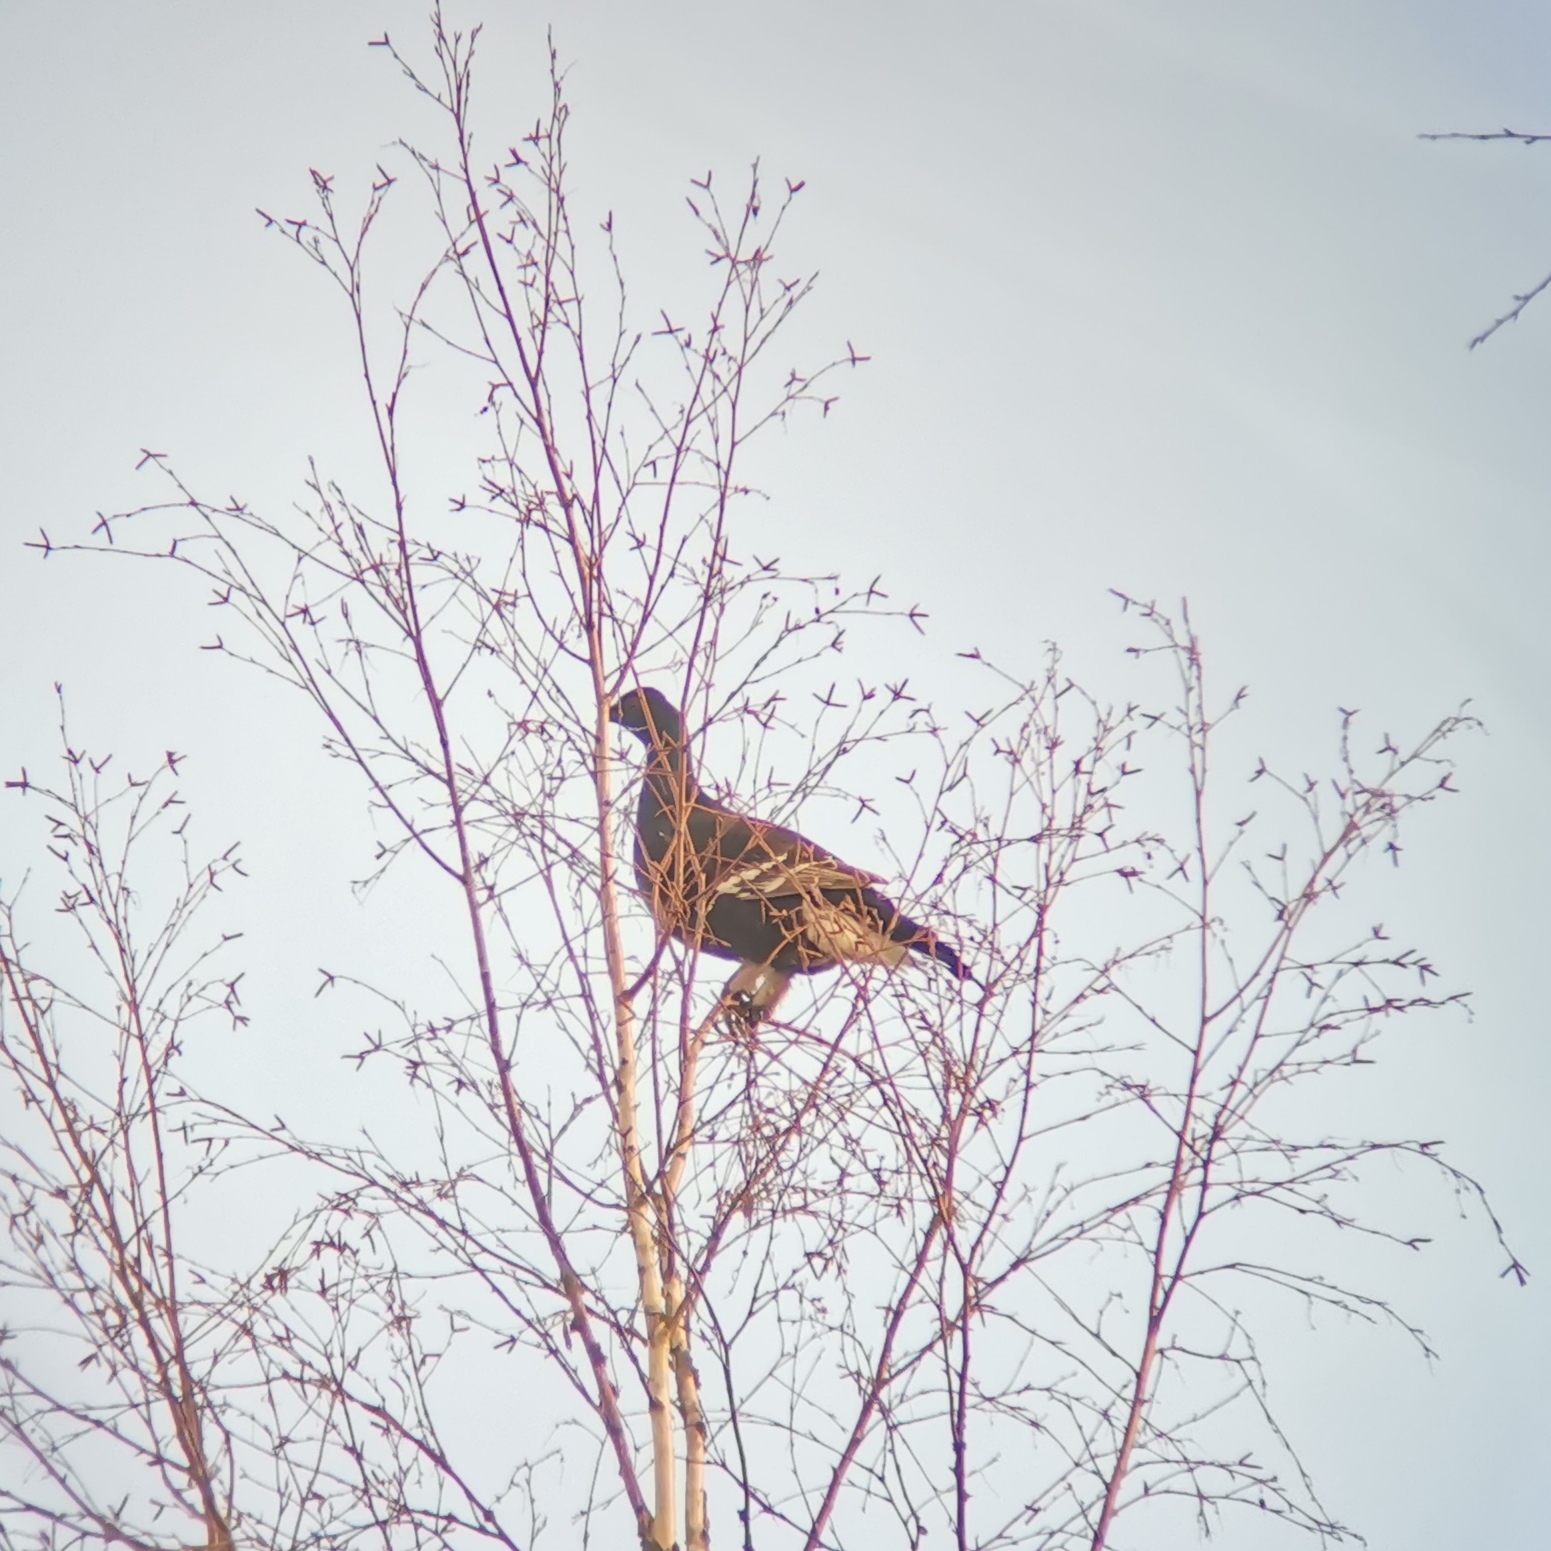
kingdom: Animalia
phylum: Chordata
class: Aves
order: Galliformes
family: Phasianidae
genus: Lyrurus
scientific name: Lyrurus tetrix
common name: Black grouse
